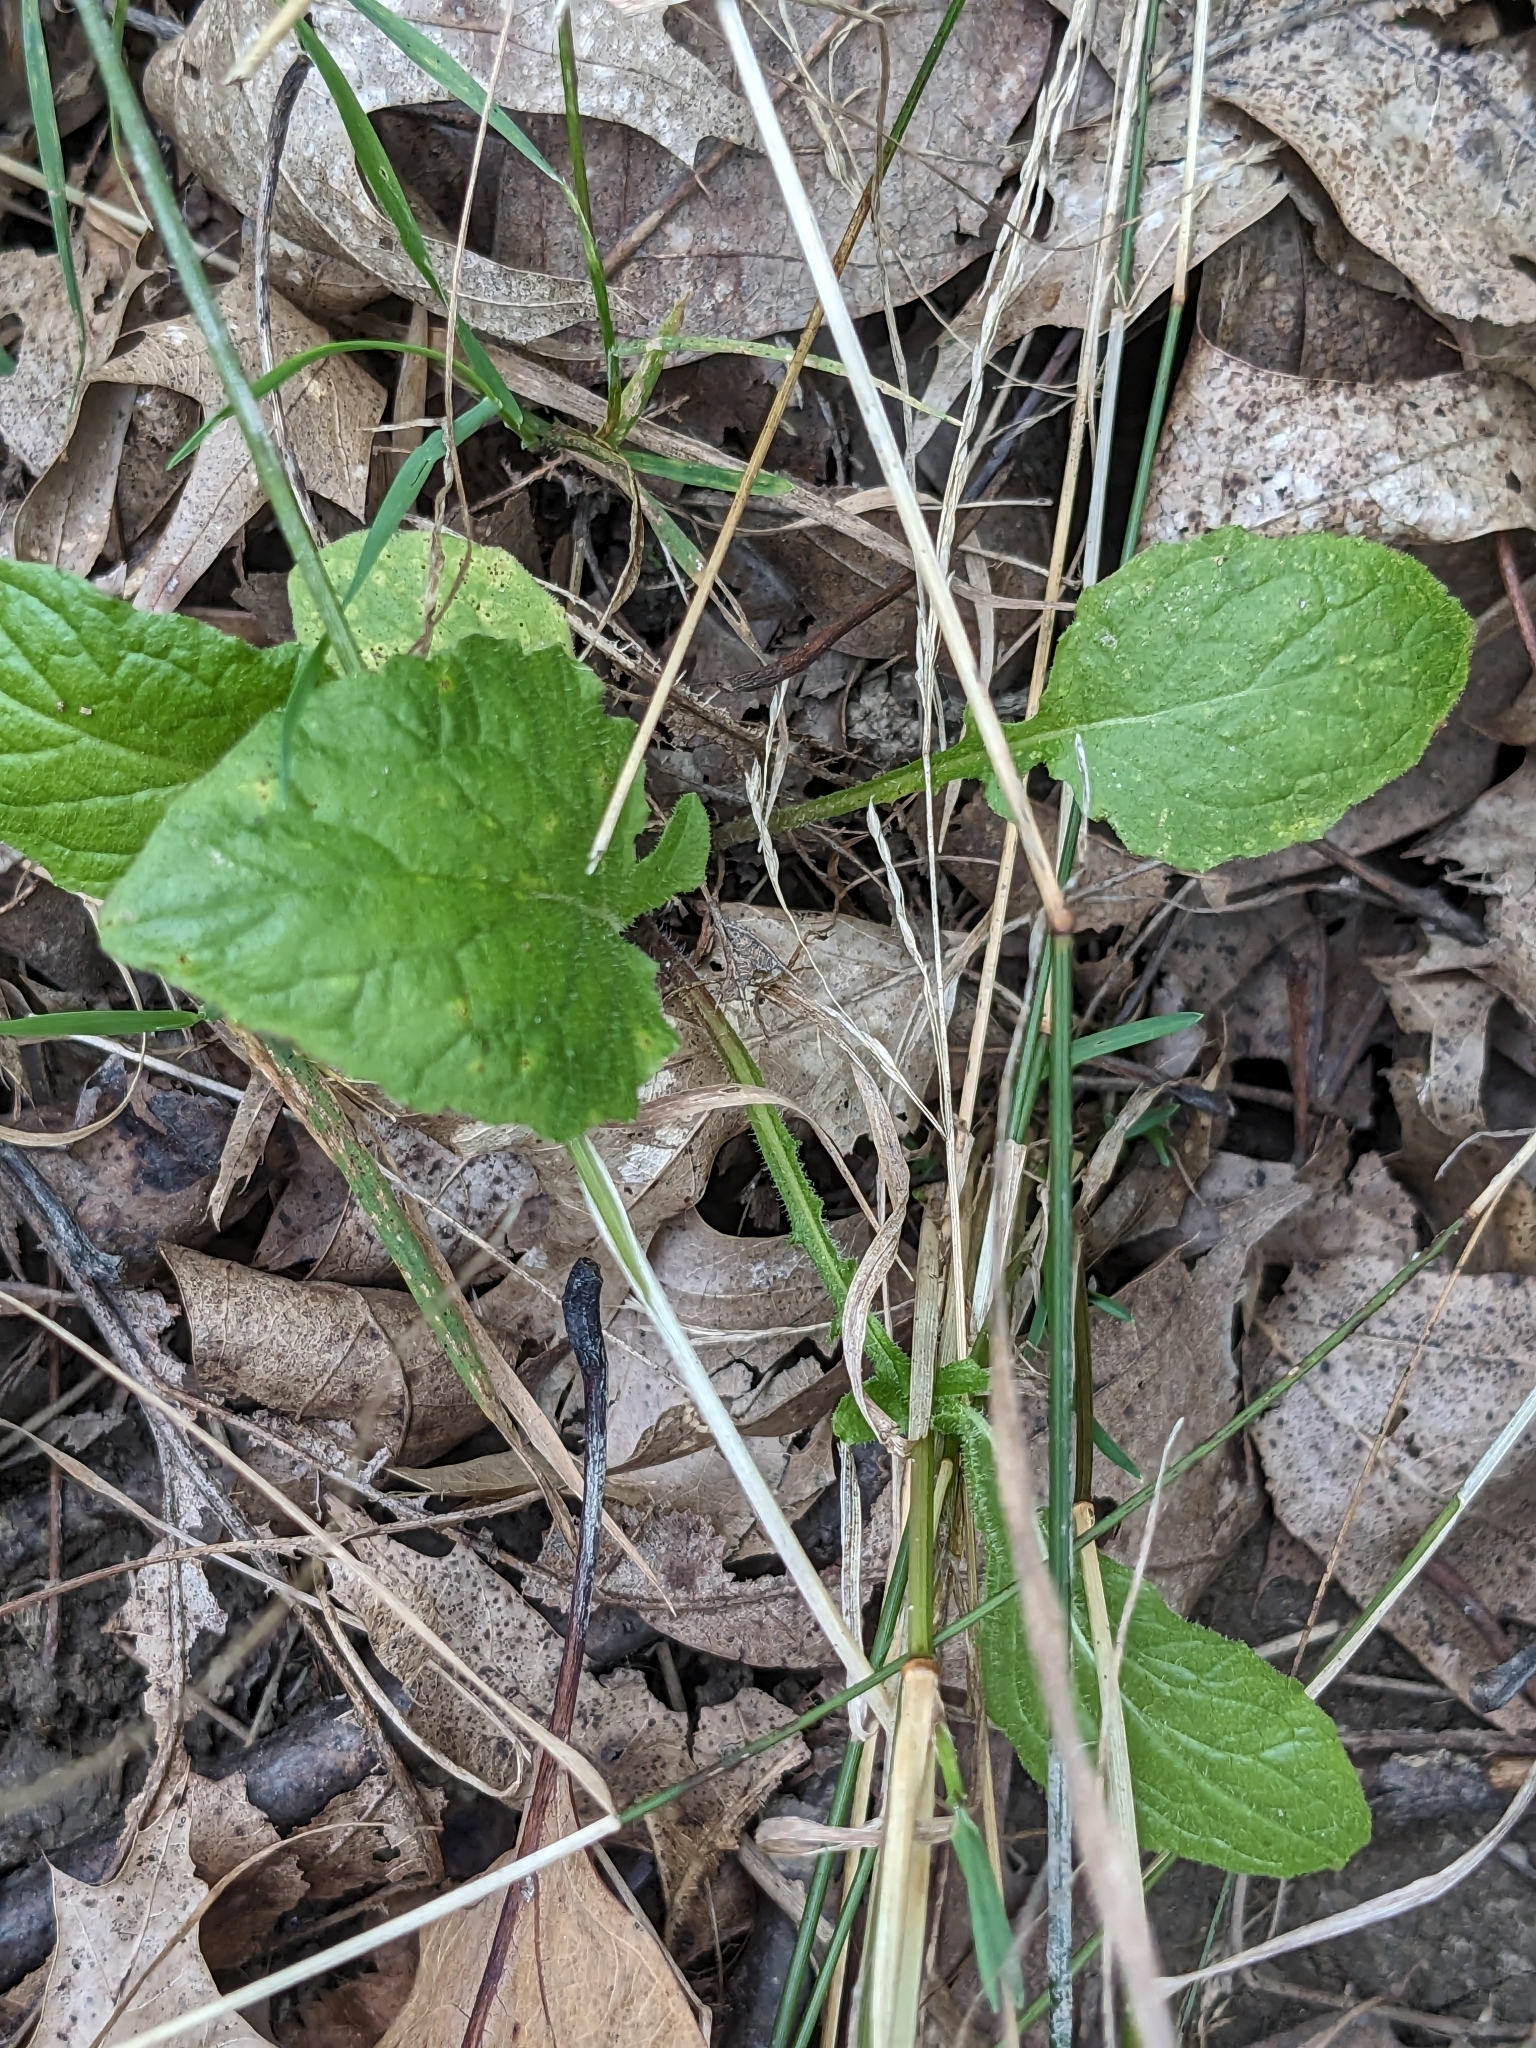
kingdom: Plantae
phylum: Tracheophyta
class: Magnoliopsida
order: Asterales
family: Asteraceae
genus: Lapsana
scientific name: Lapsana communis
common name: Nipplewort
